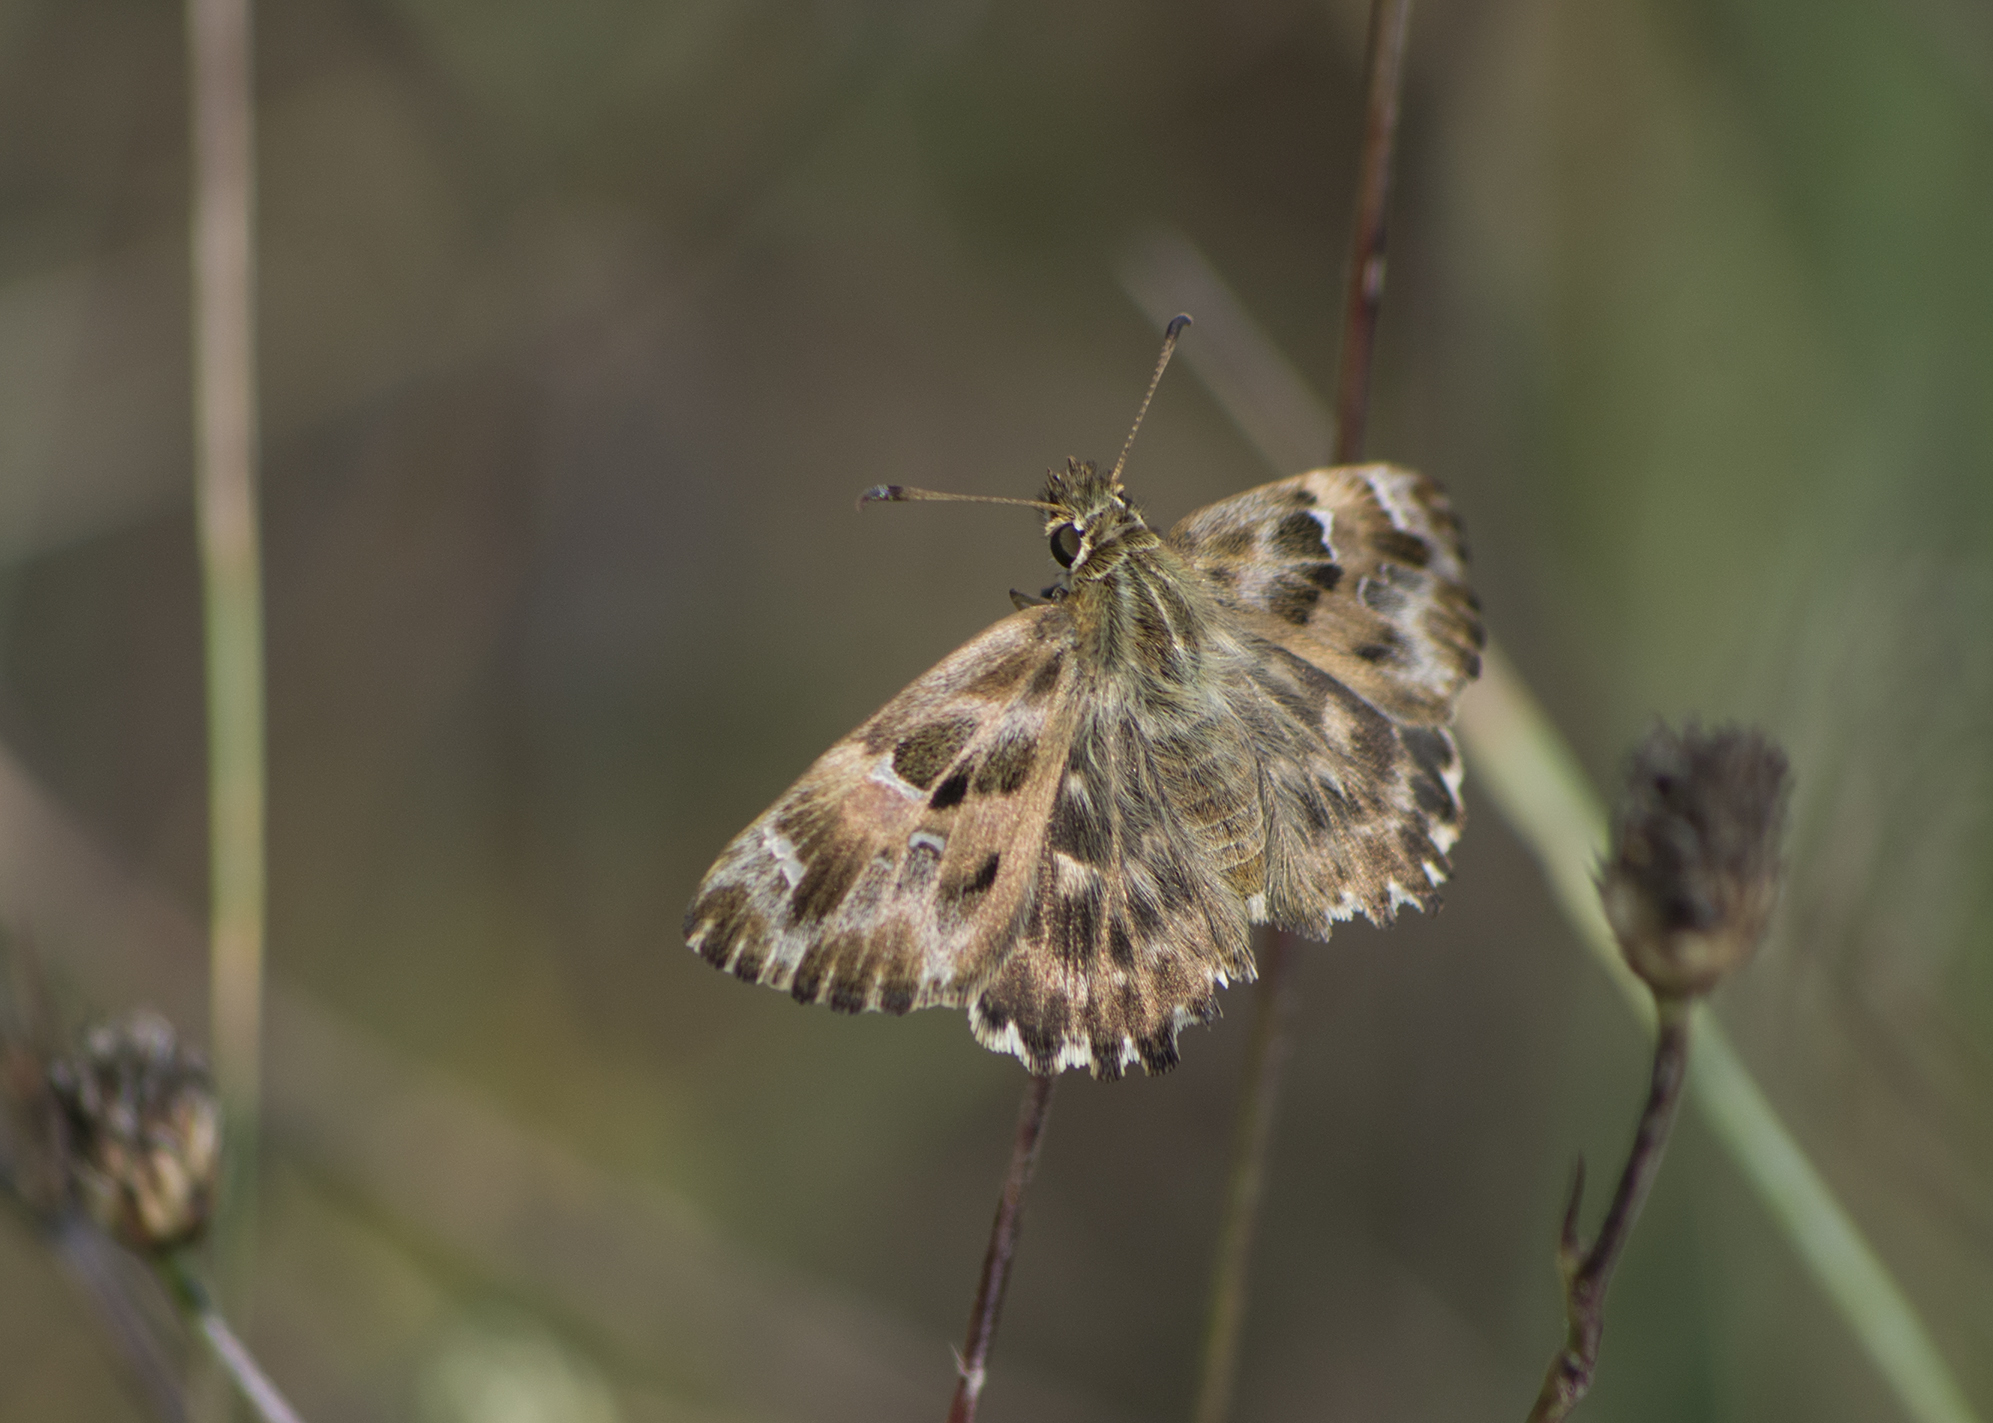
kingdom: Animalia
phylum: Arthropoda
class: Insecta
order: Lepidoptera
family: Hesperiidae
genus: Carcharodus
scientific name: Carcharodus alceae
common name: Mallow skipper
